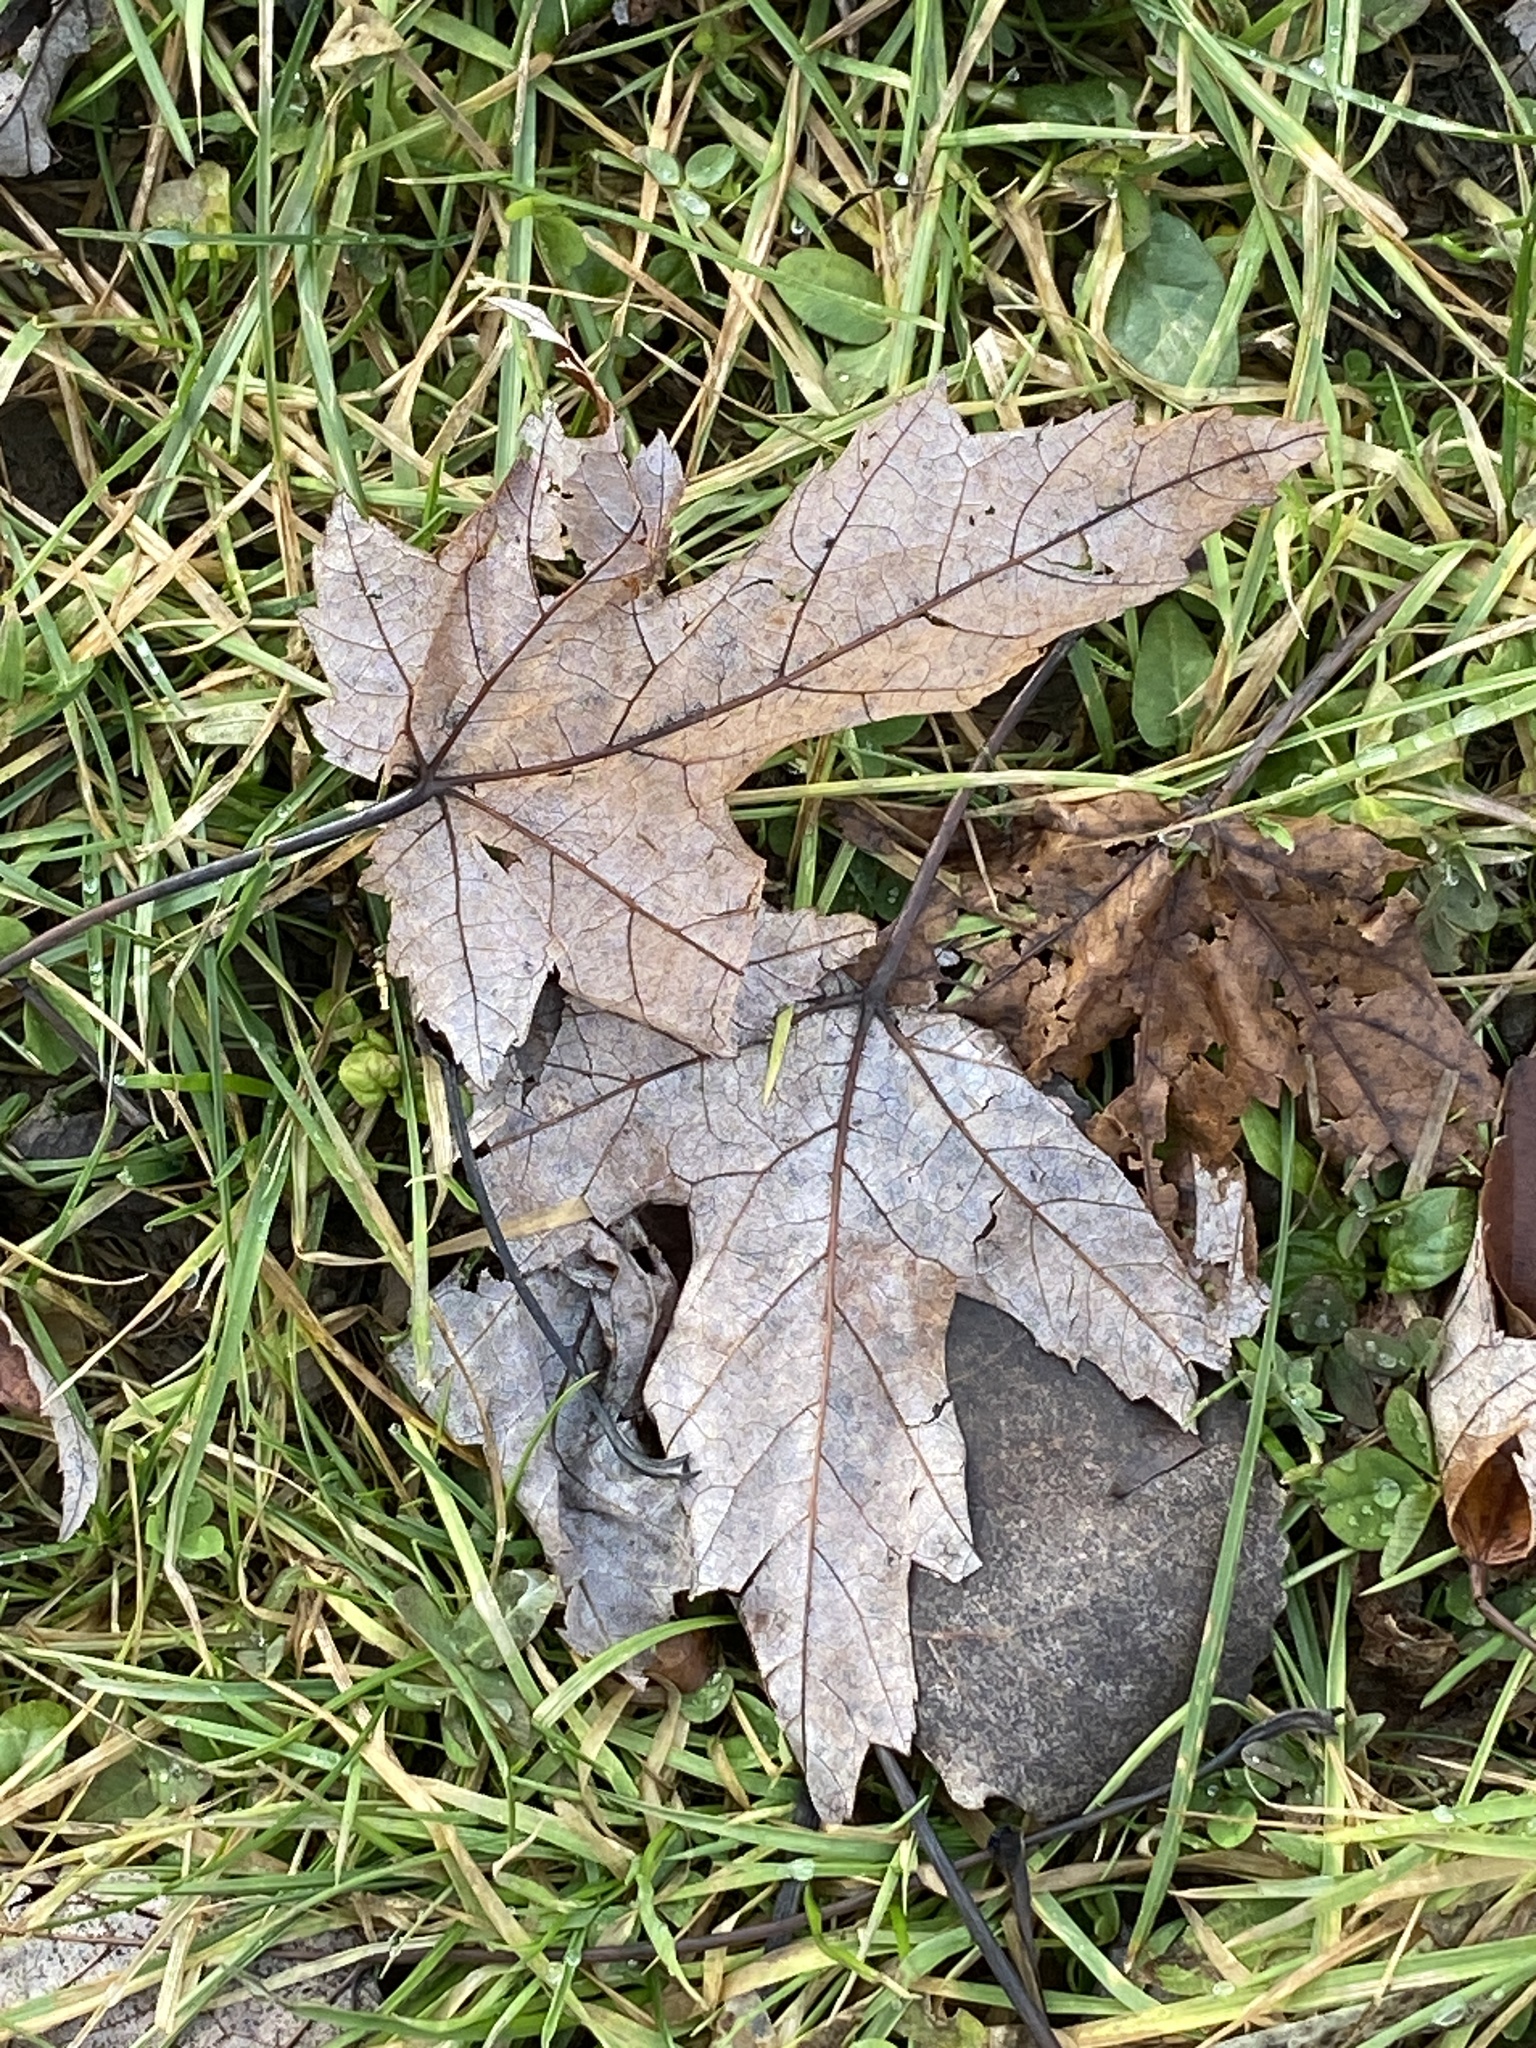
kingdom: Plantae
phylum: Tracheophyta
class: Magnoliopsida
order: Sapindales
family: Sapindaceae
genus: Acer
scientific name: Acer saccharinum
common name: Silver maple
